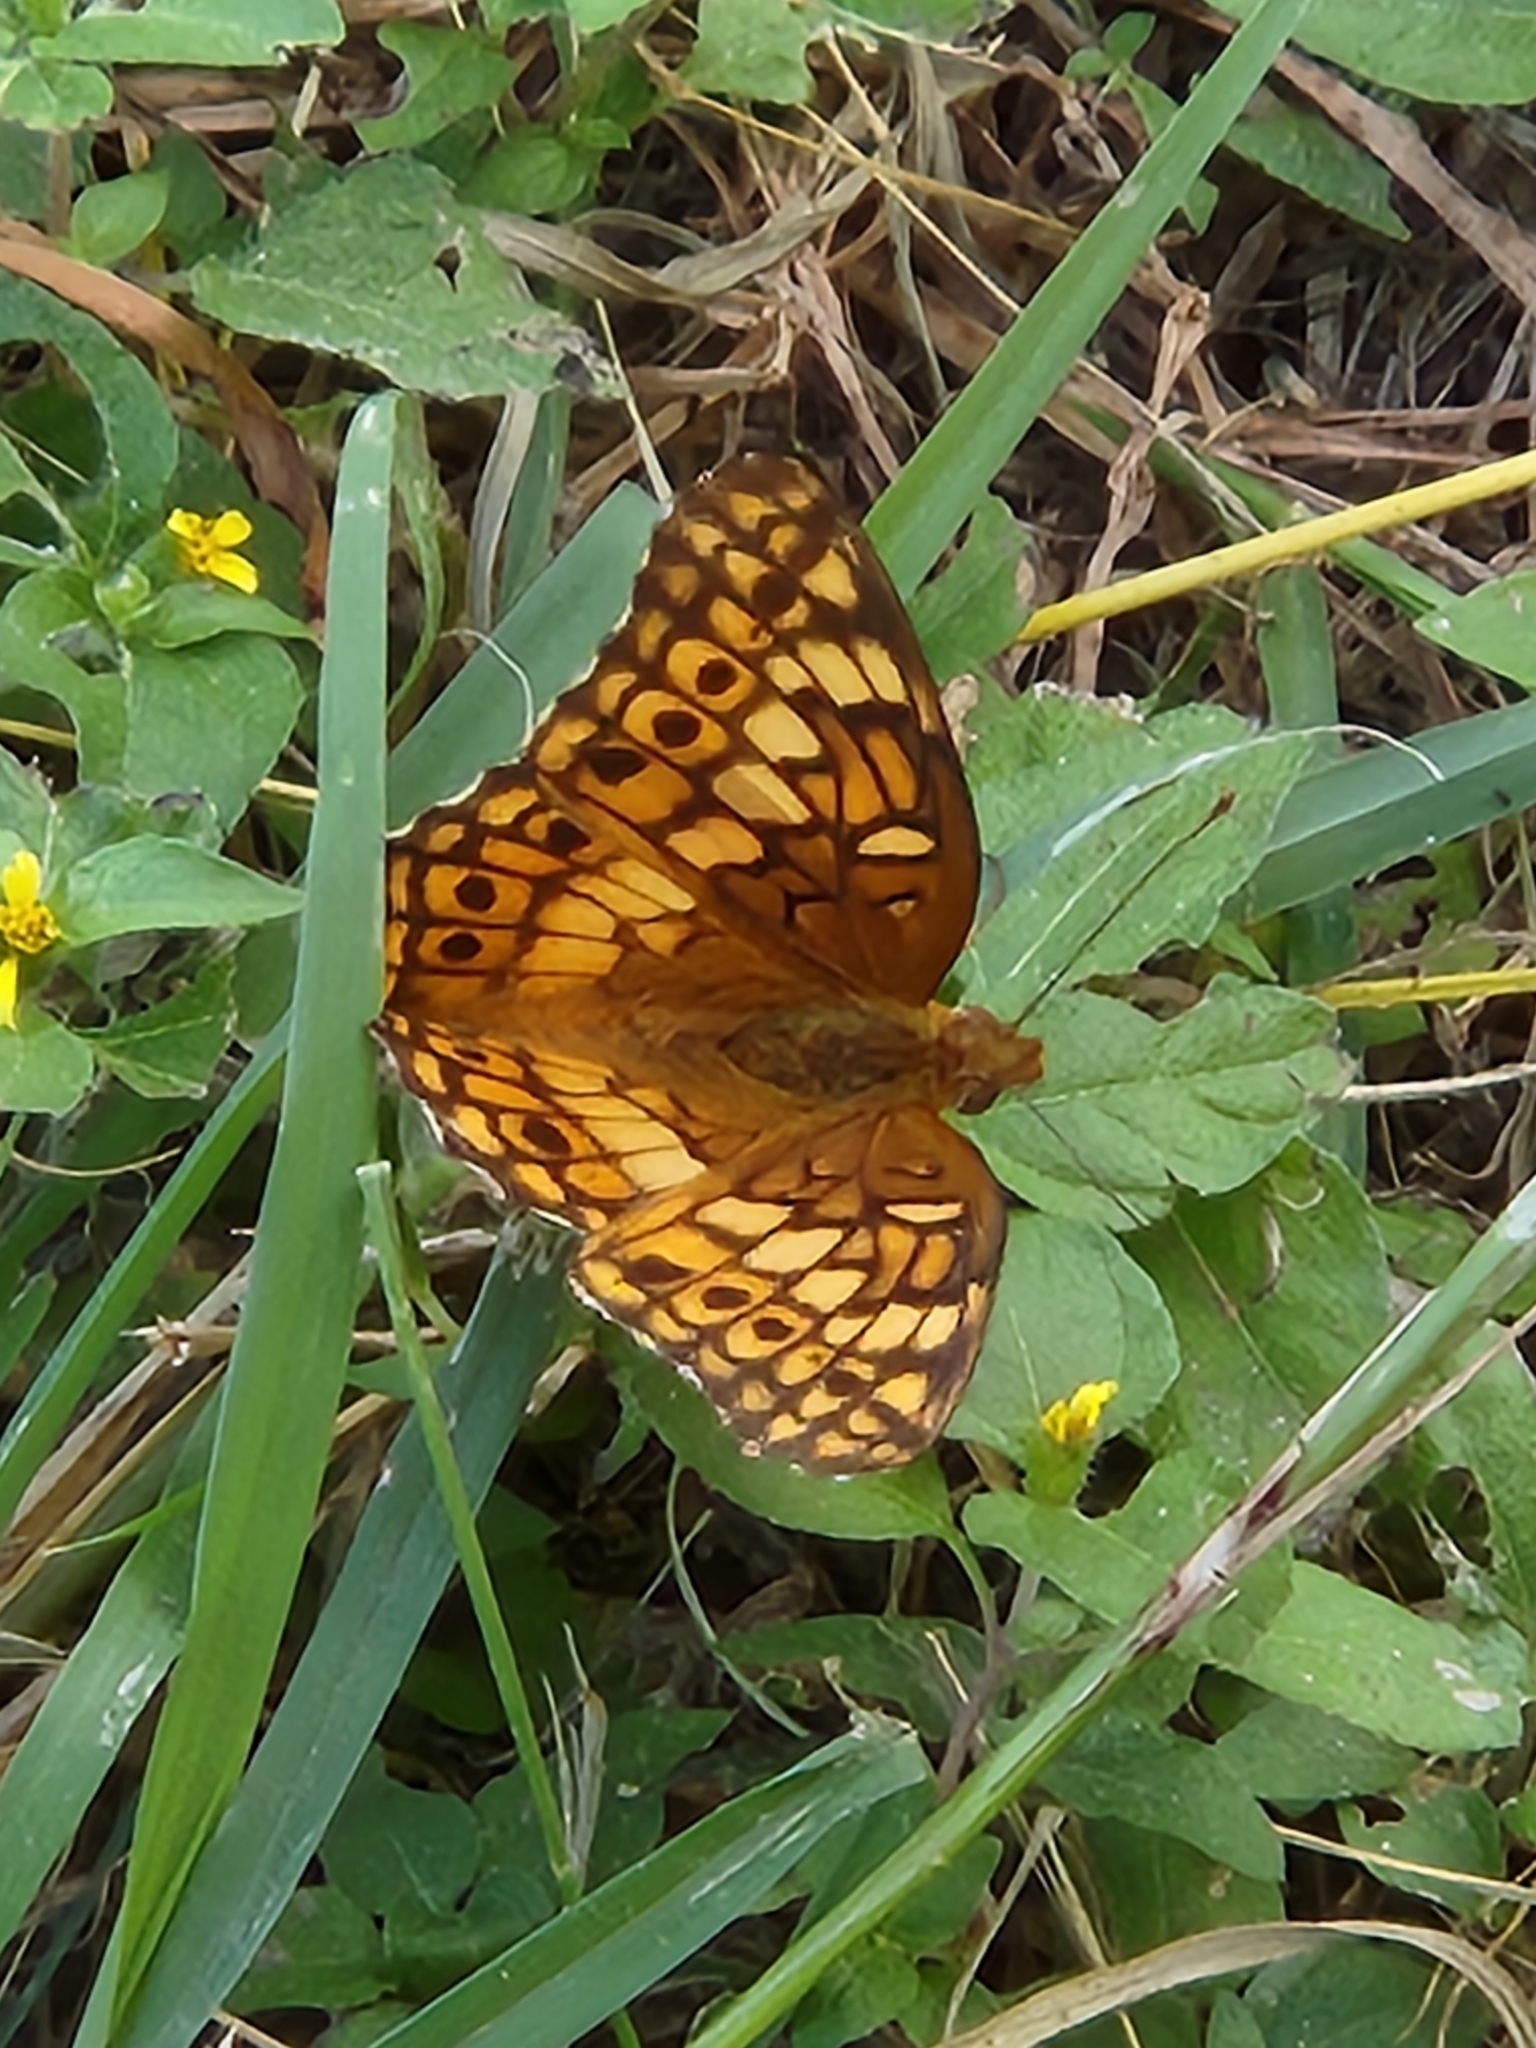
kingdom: Animalia
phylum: Arthropoda
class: Insecta
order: Lepidoptera
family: Nymphalidae
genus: Euptoieta
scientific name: Euptoieta claudia
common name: Variegated fritillary
